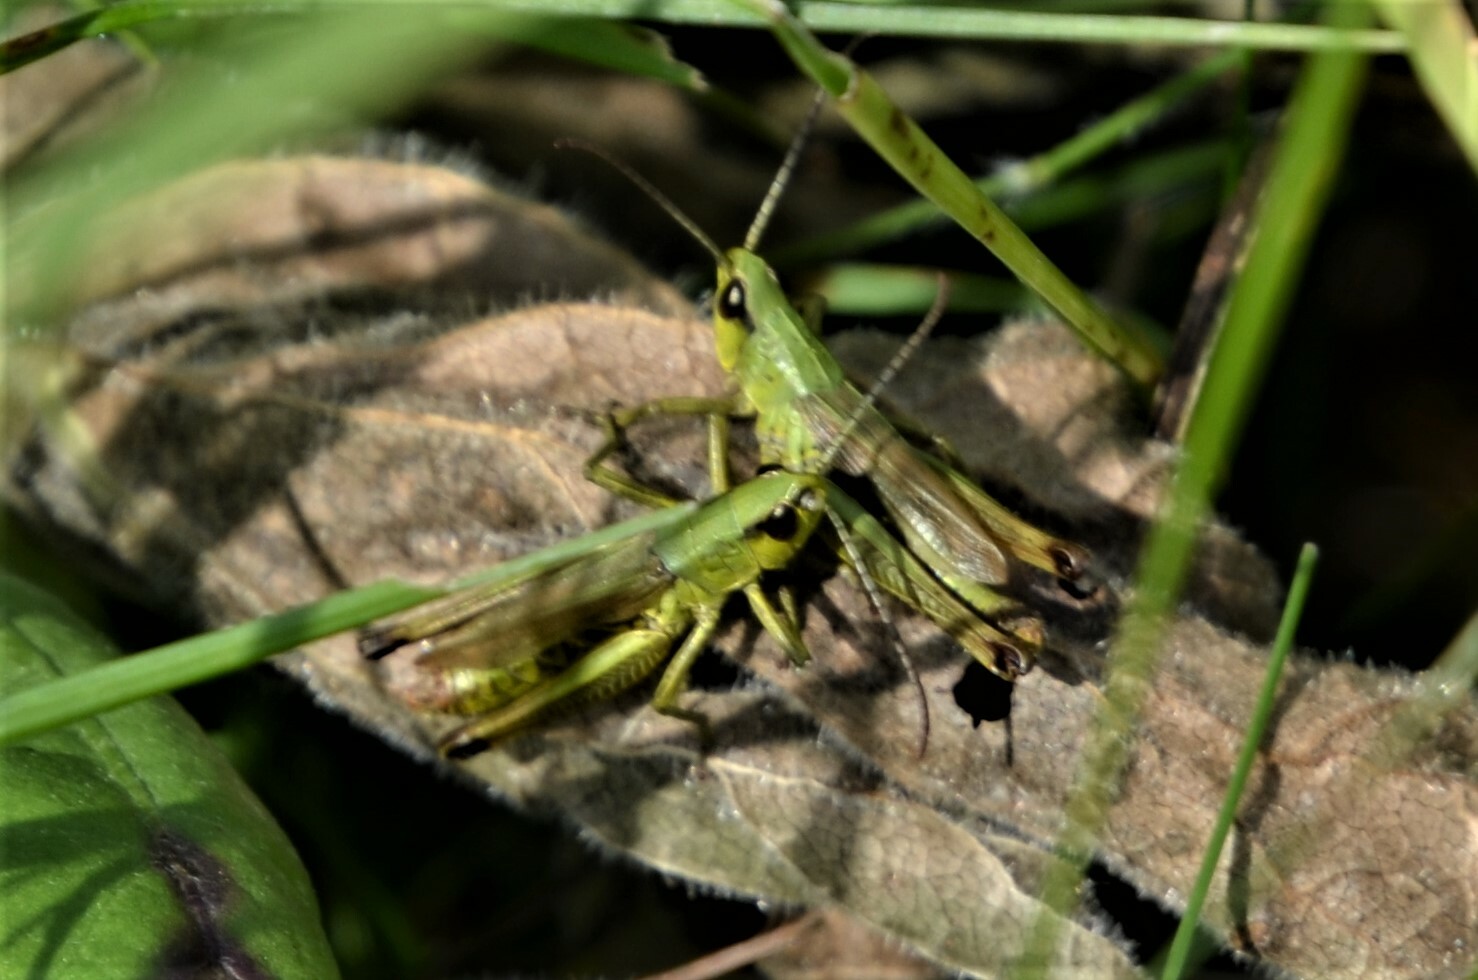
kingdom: Animalia
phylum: Arthropoda
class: Insecta
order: Orthoptera
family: Acrididae
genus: Pseudochorthippus
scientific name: Pseudochorthippus parallelus
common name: Meadow grasshopper
